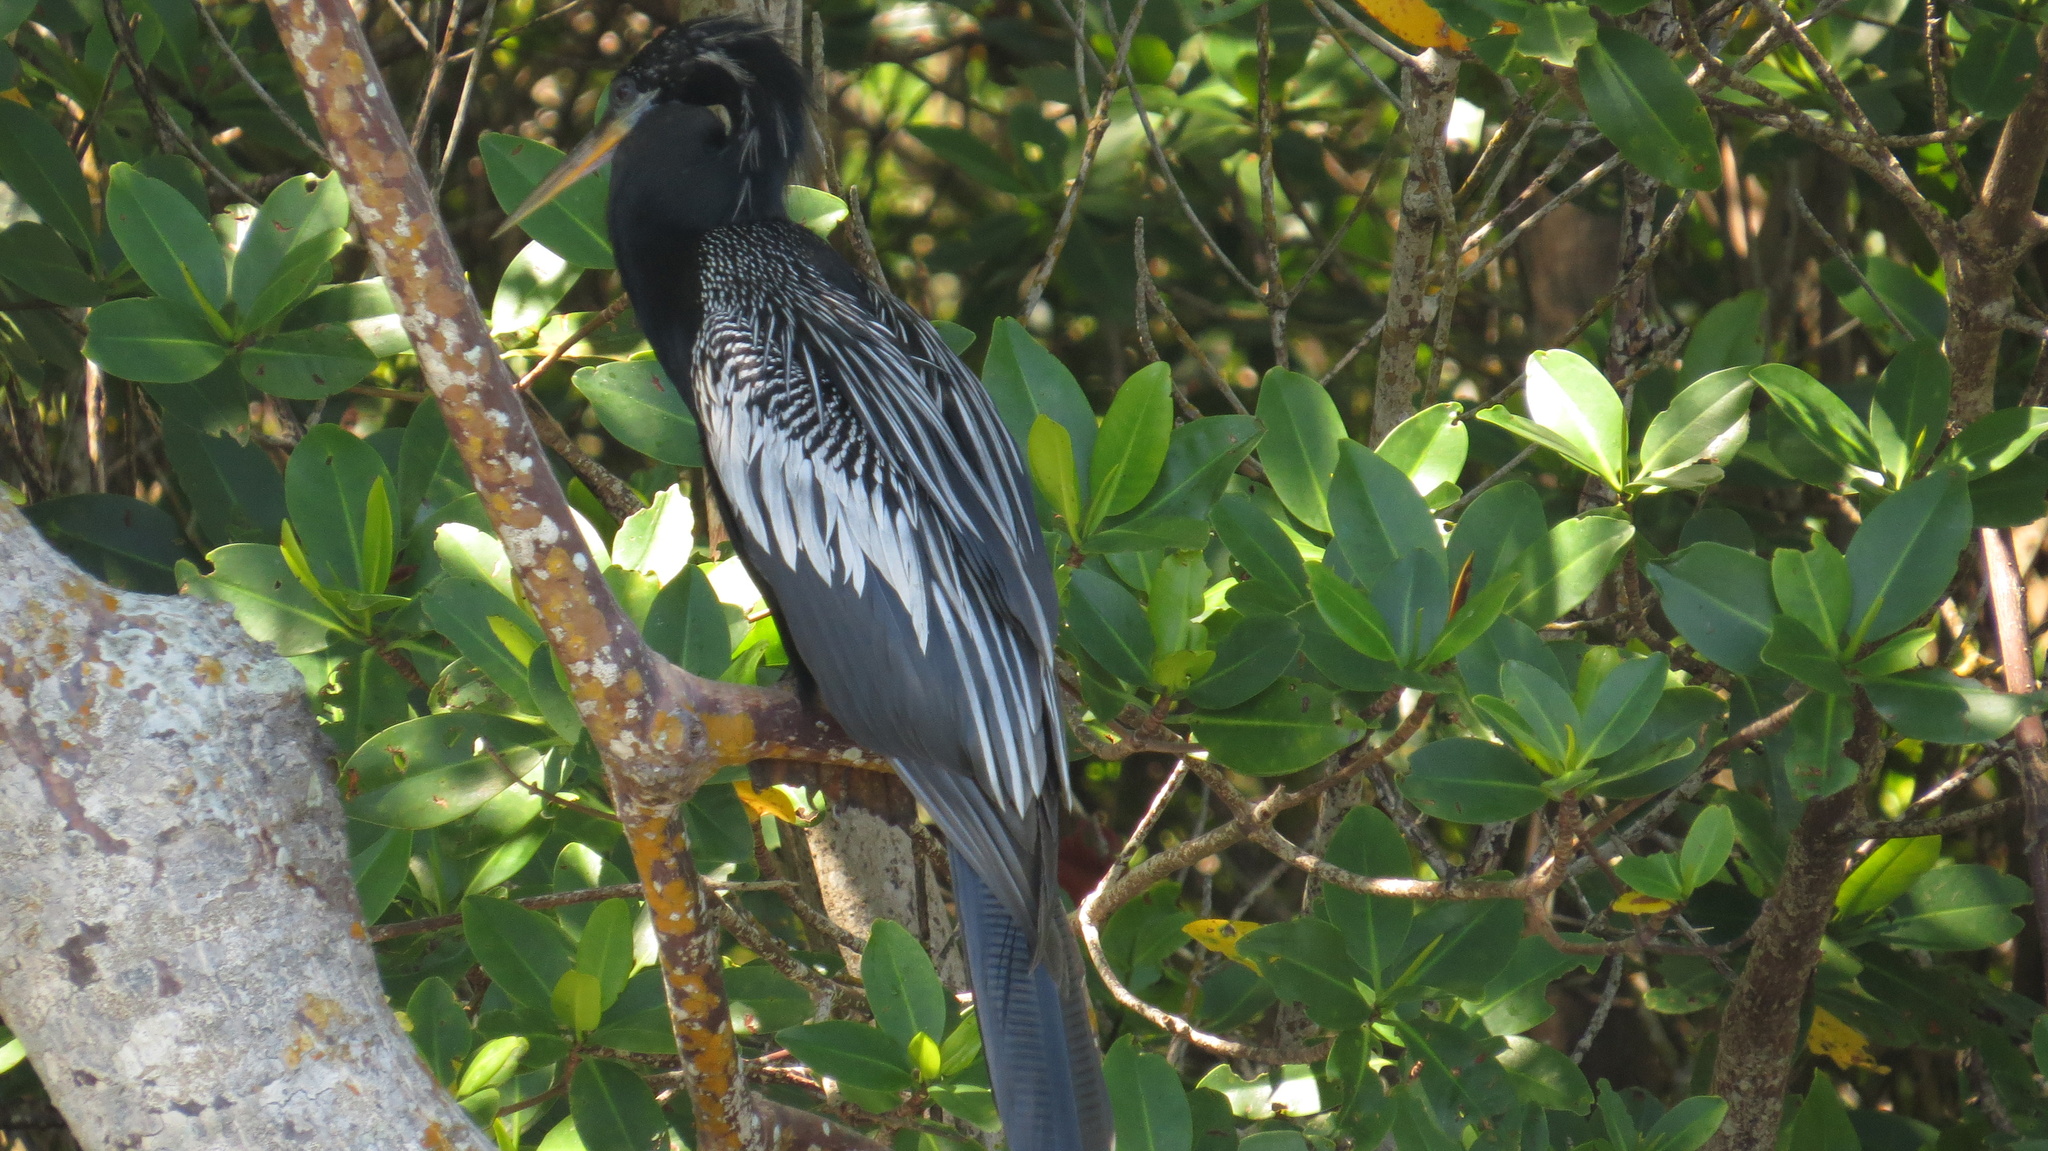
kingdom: Animalia
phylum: Chordata
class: Aves
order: Suliformes
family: Anhingidae
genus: Anhinga
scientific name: Anhinga anhinga
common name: Anhinga
